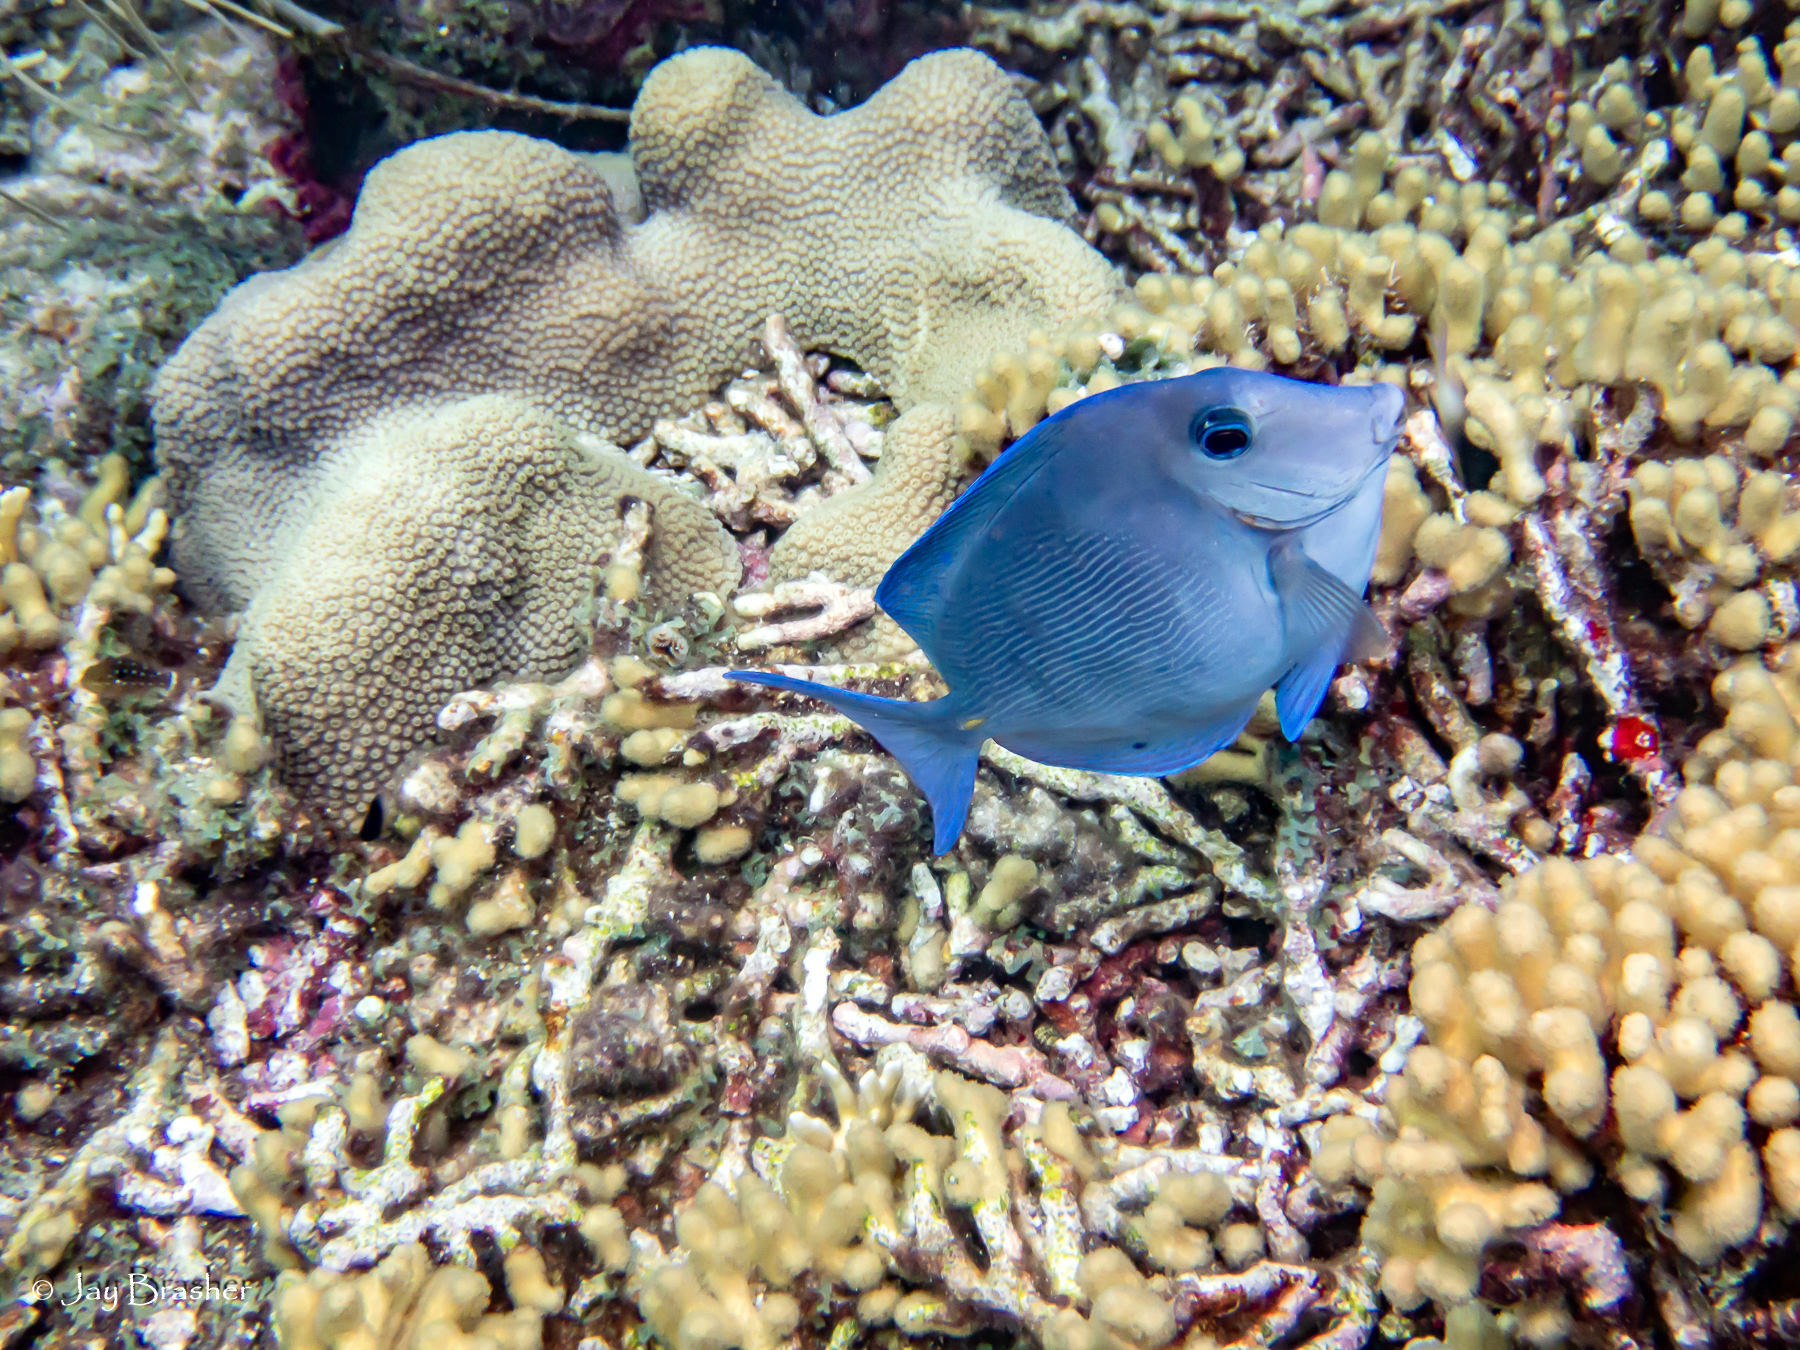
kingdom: Animalia
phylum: Chordata
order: Perciformes
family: Acanthuridae
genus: Acanthurus
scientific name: Acanthurus coeruleus
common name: Blue tang
